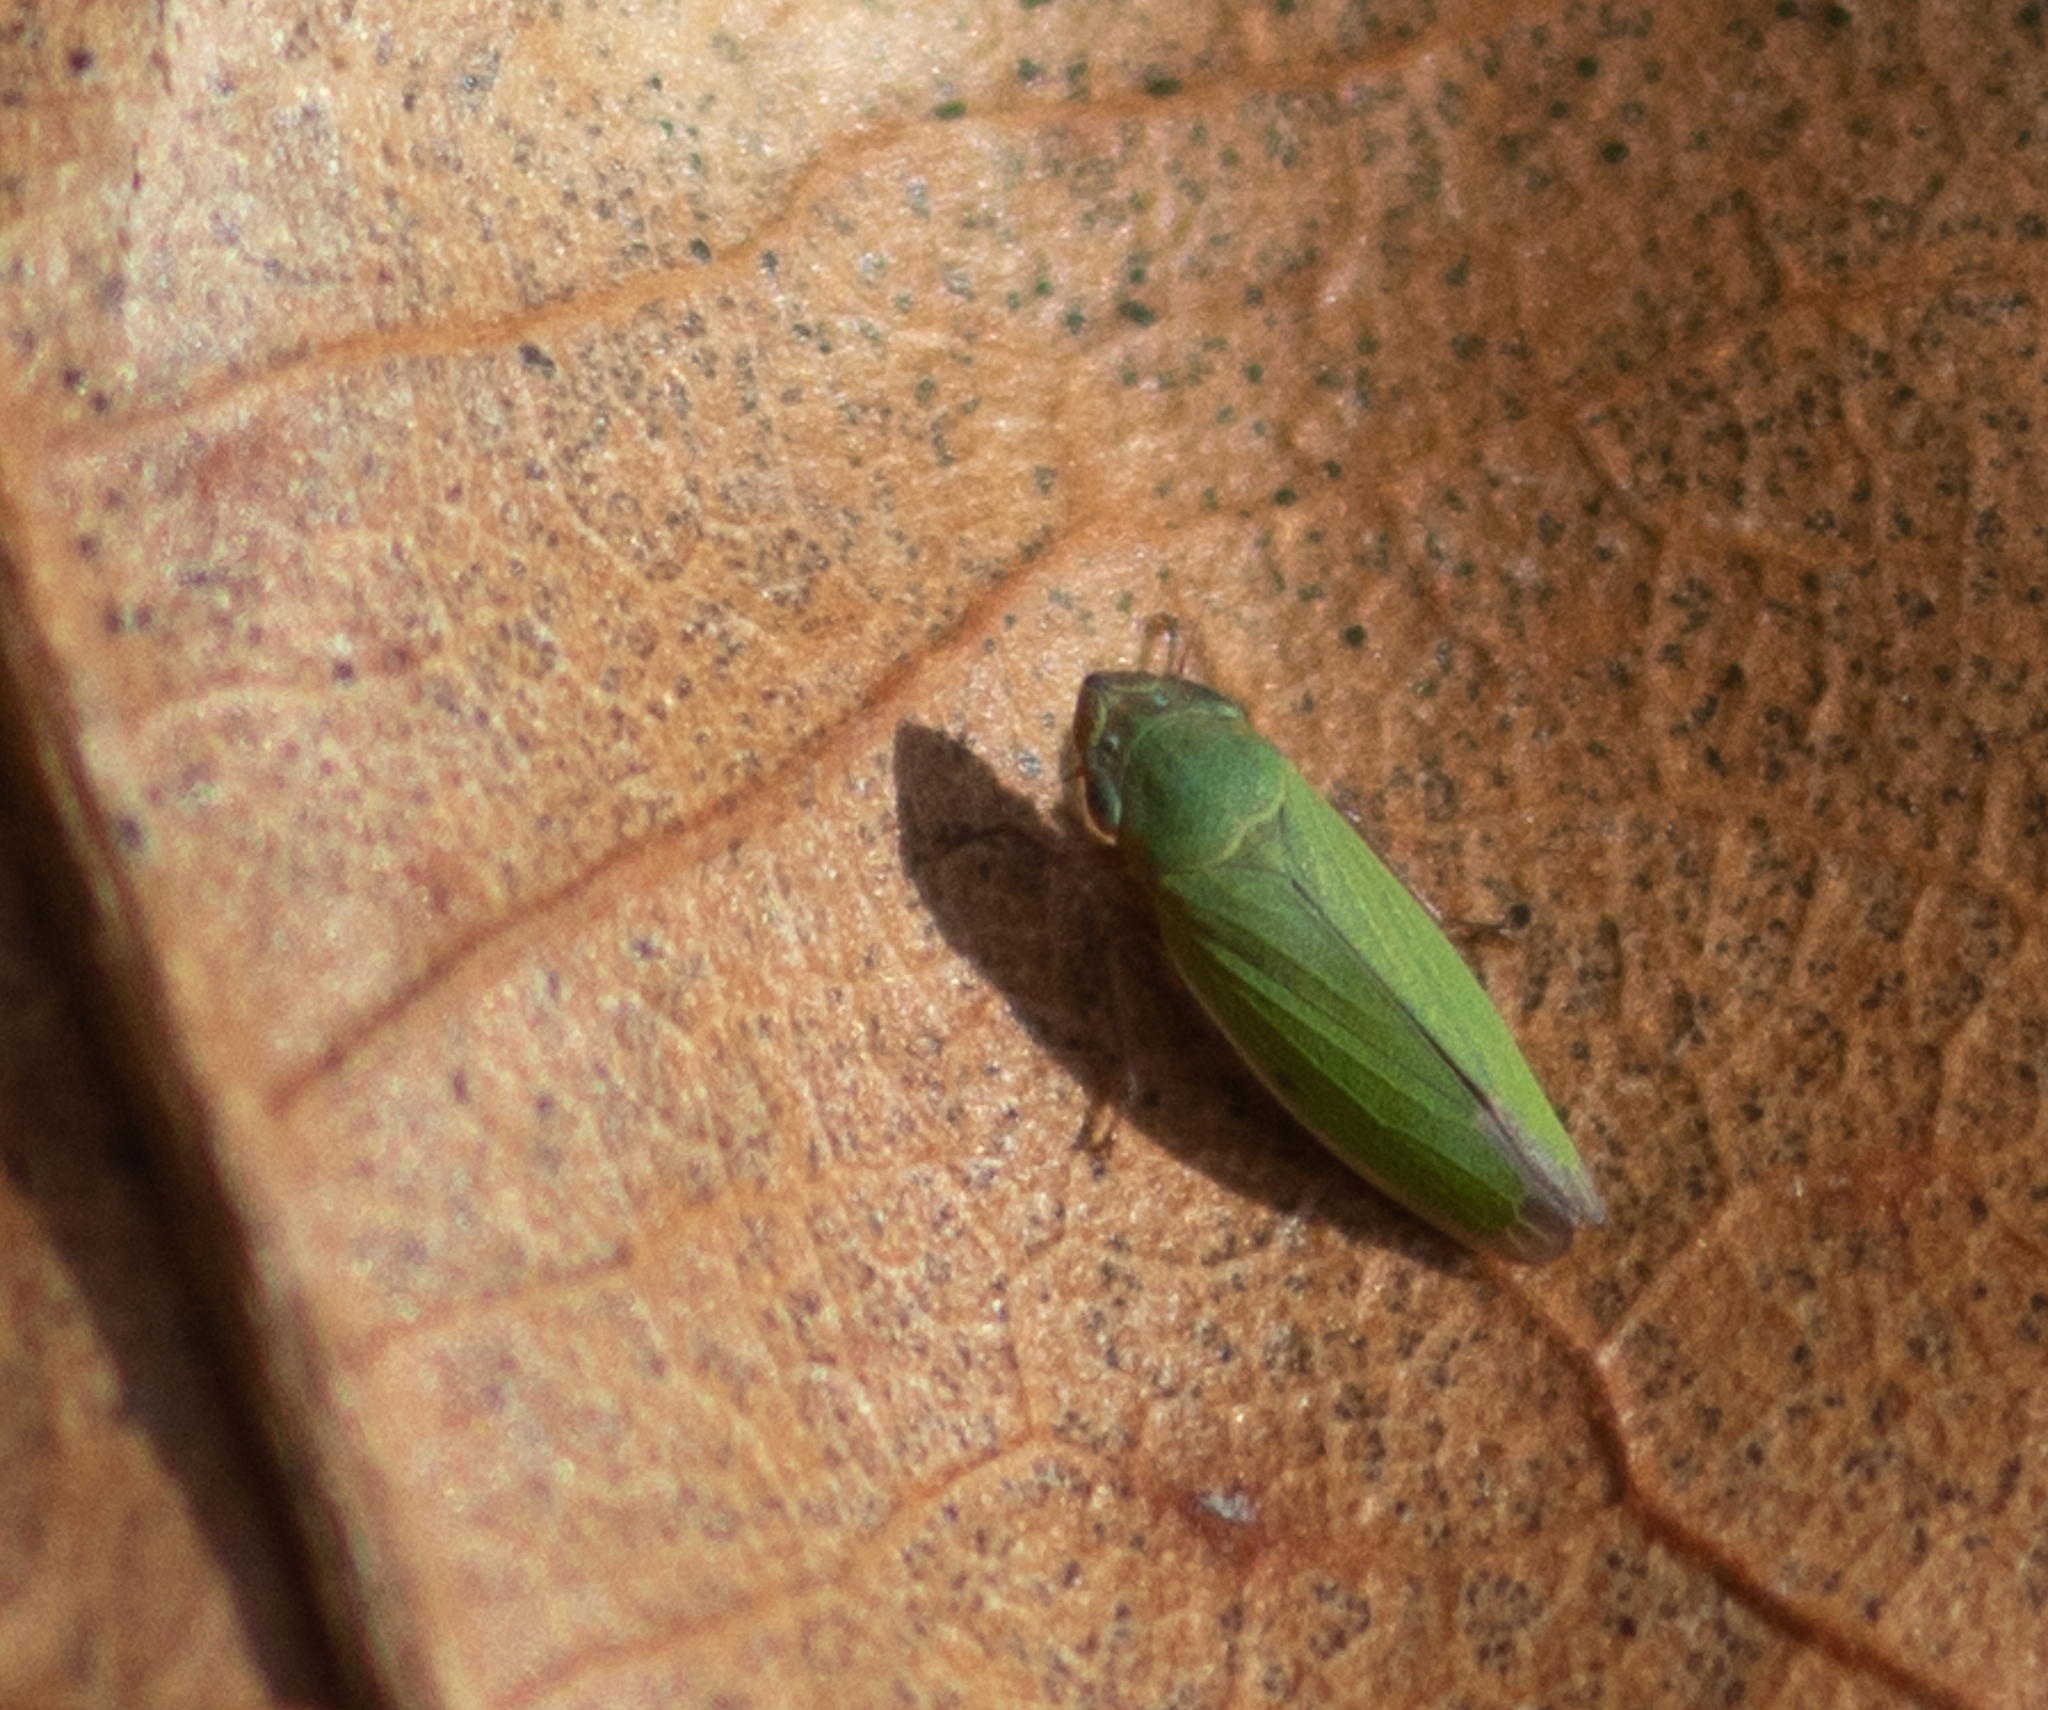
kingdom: Animalia
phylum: Arthropoda
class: Insecta
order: Hemiptera
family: Cicadellidae
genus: Helochara
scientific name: Helochara communis
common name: Bog leafhopper
